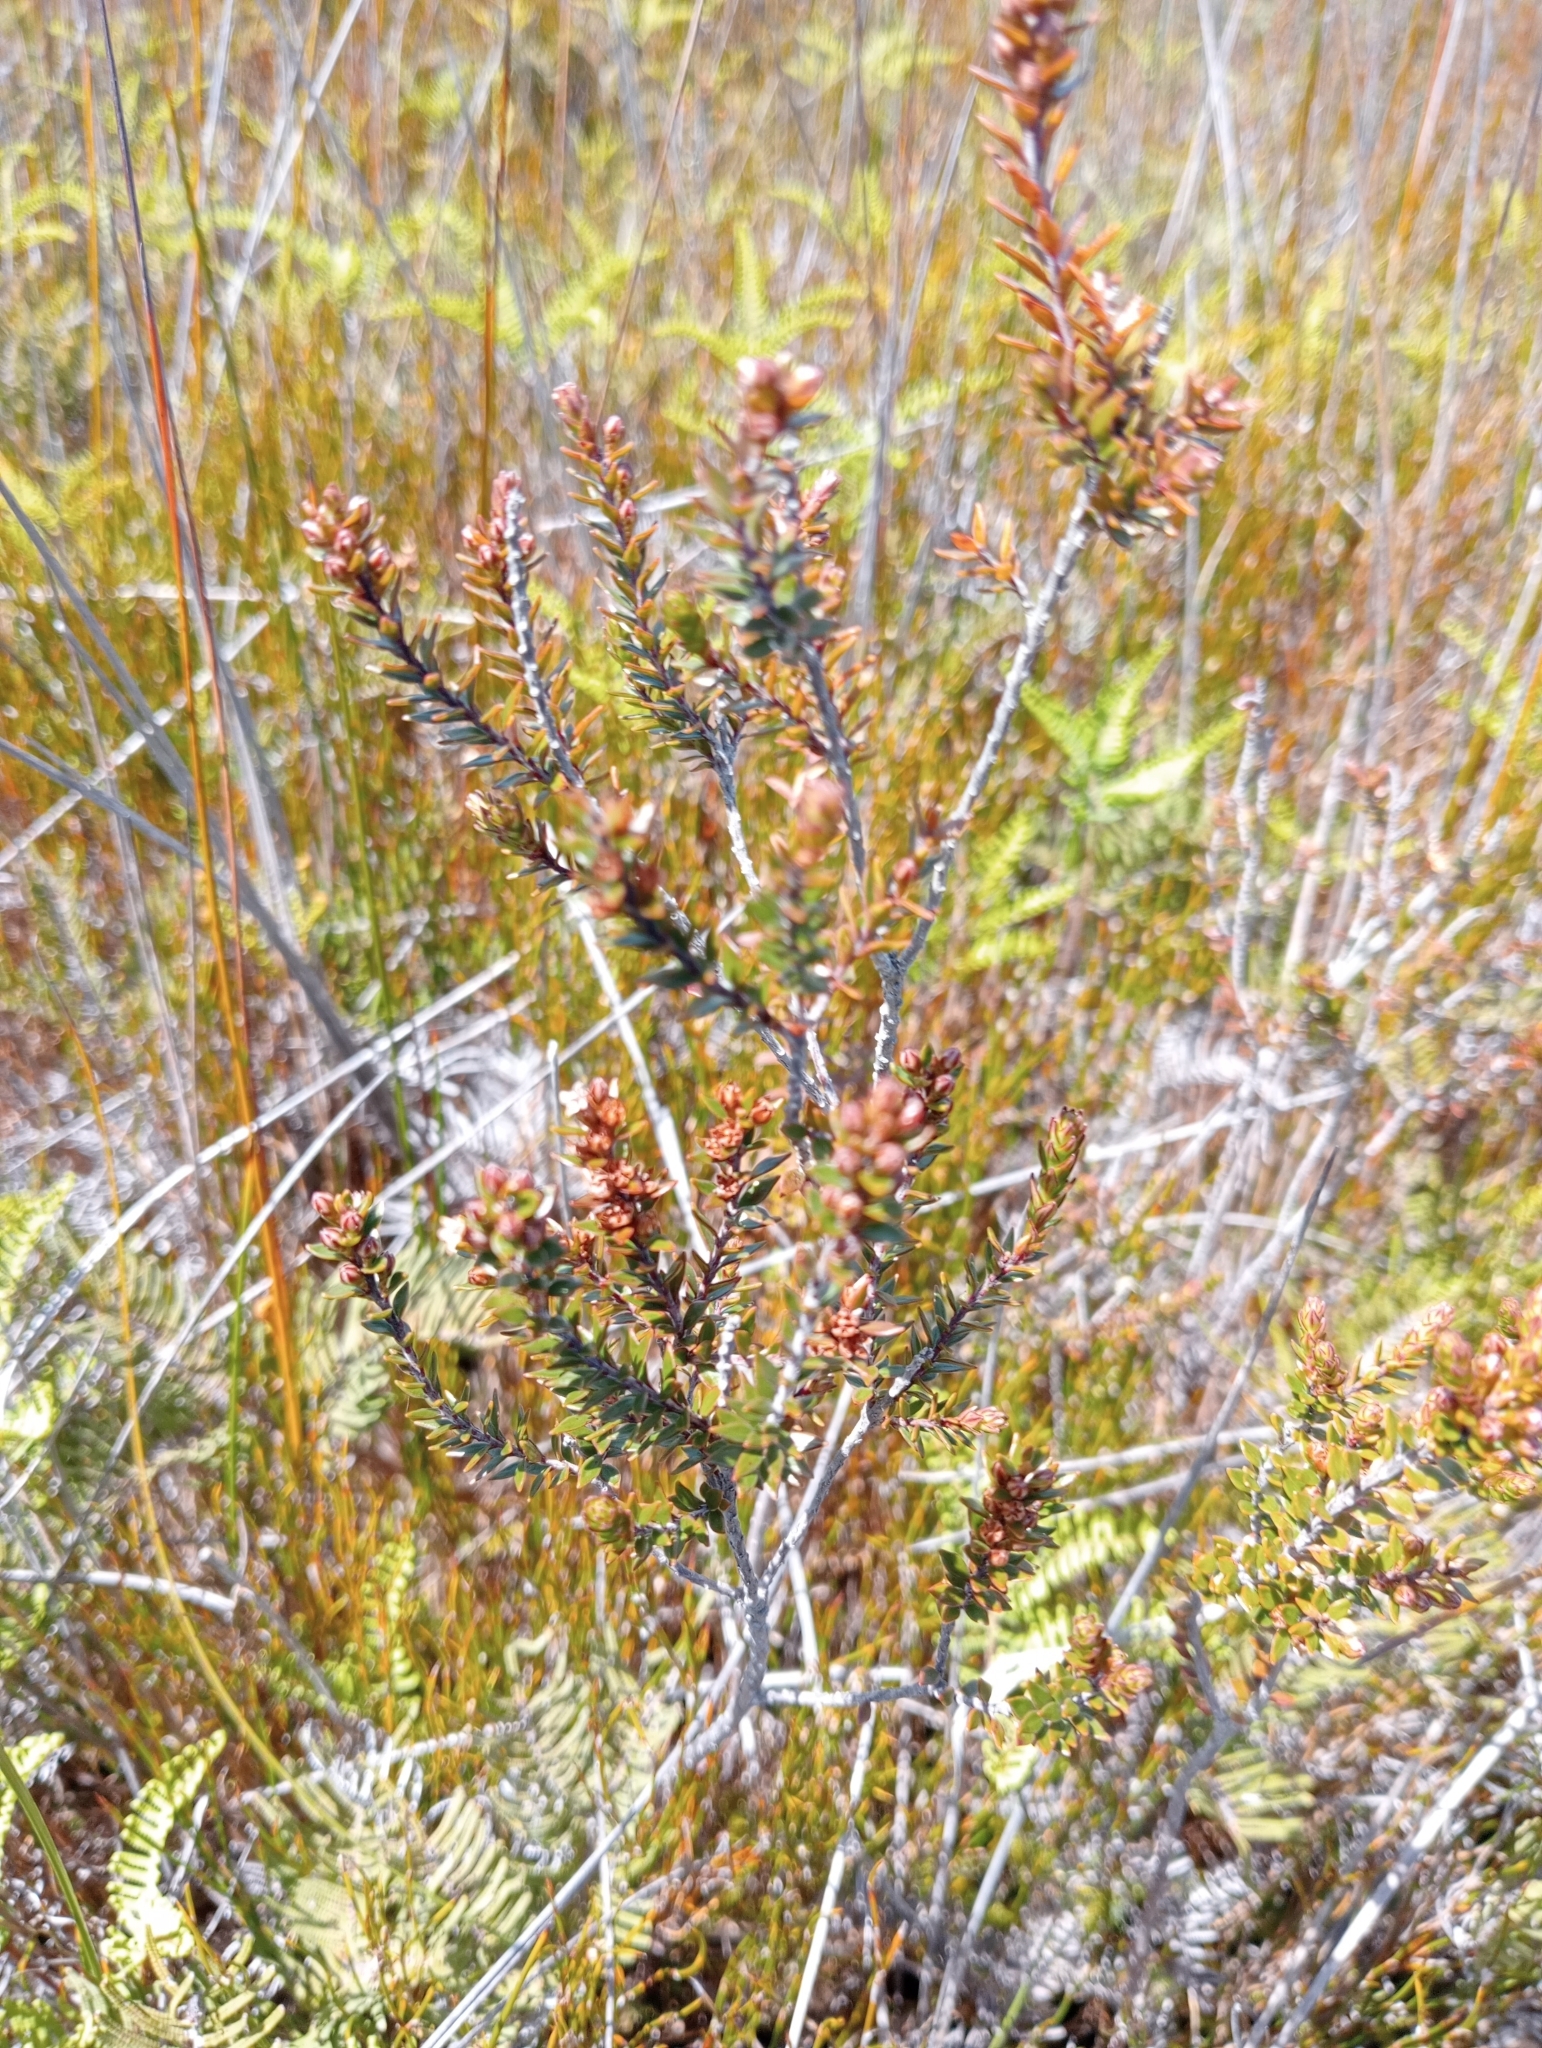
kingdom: Plantae
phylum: Tracheophyta
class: Magnoliopsida
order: Ericales
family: Ericaceae
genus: Epacris
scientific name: Epacris pauciflora
